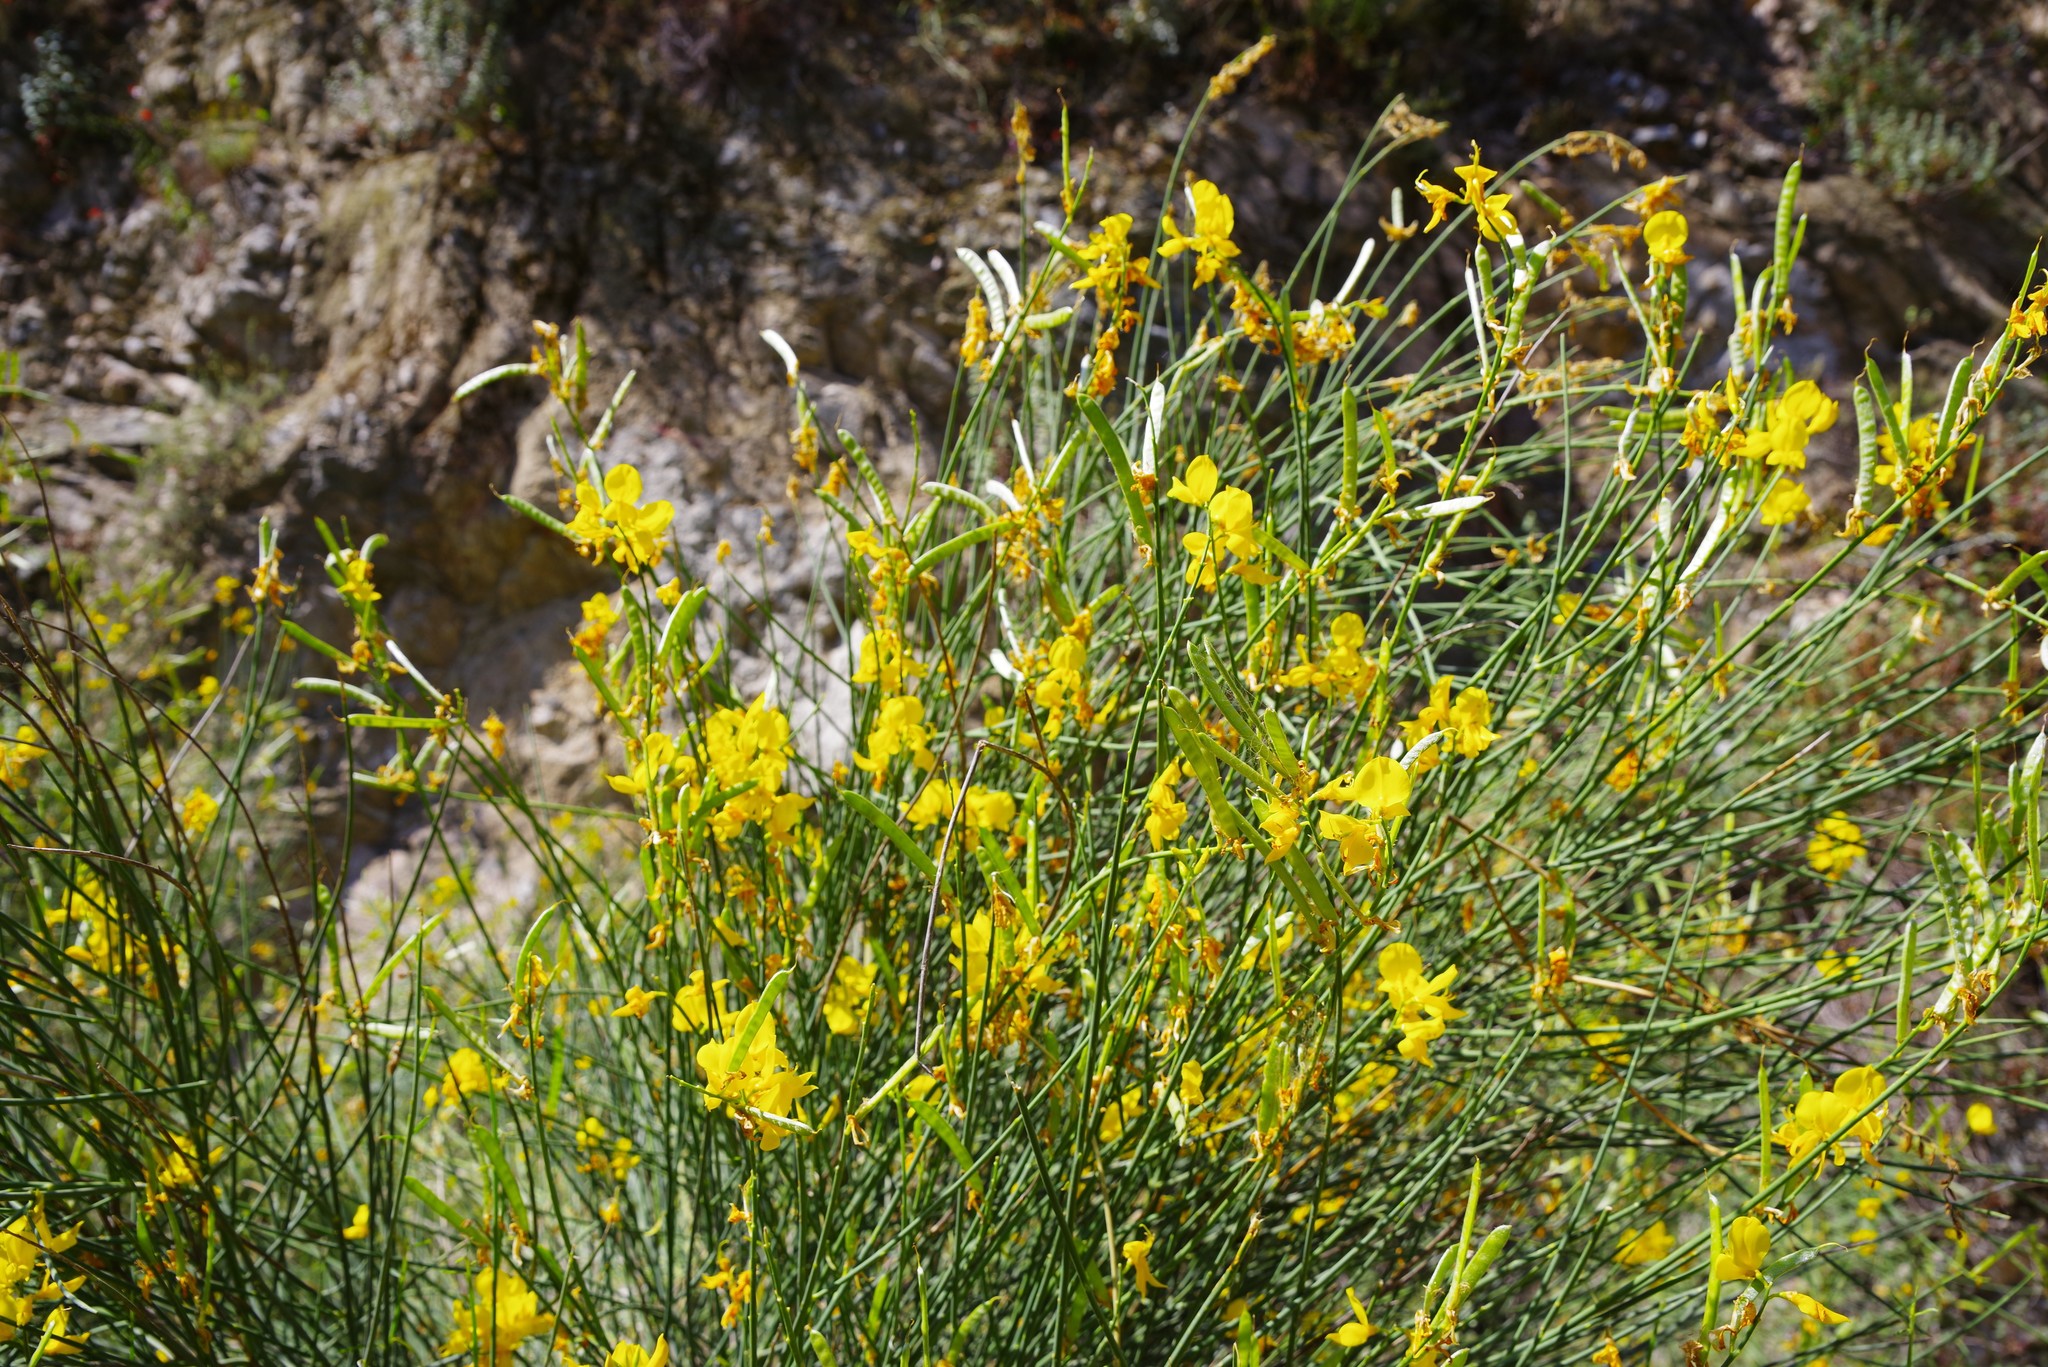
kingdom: Plantae
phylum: Tracheophyta
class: Magnoliopsida
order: Fabales
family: Fabaceae
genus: Spartium
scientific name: Spartium junceum
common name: Spanish broom
